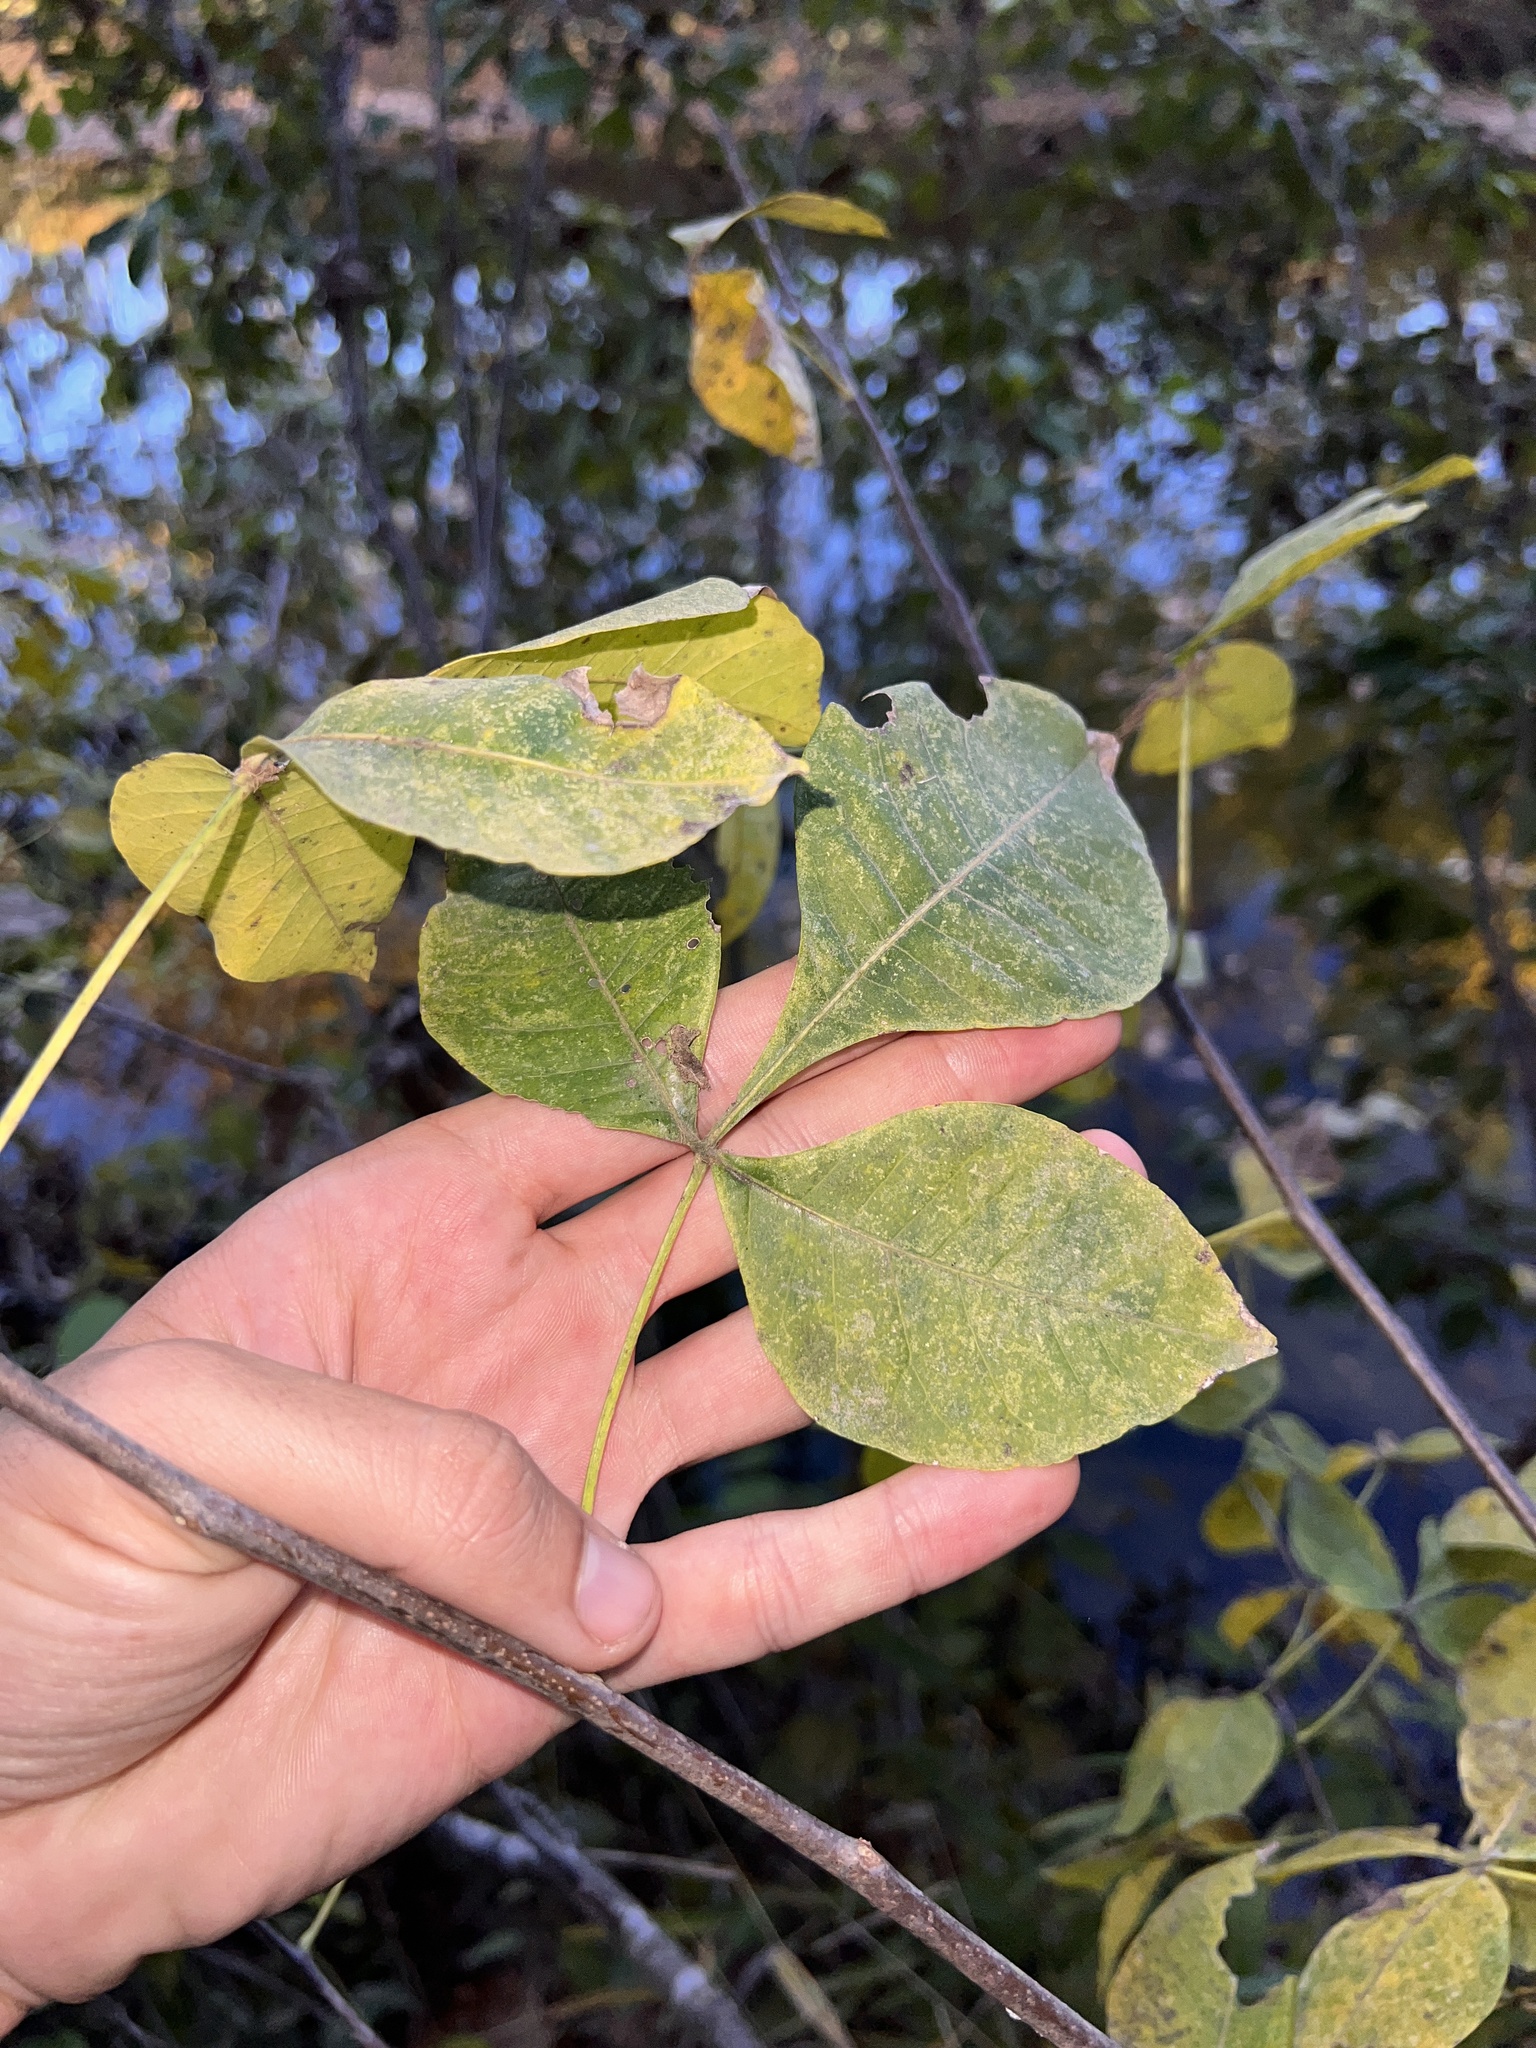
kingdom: Plantae
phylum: Tracheophyta
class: Magnoliopsida
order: Sapindales
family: Rutaceae
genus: Ptelea
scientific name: Ptelea trifoliata
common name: Common hop-tree
